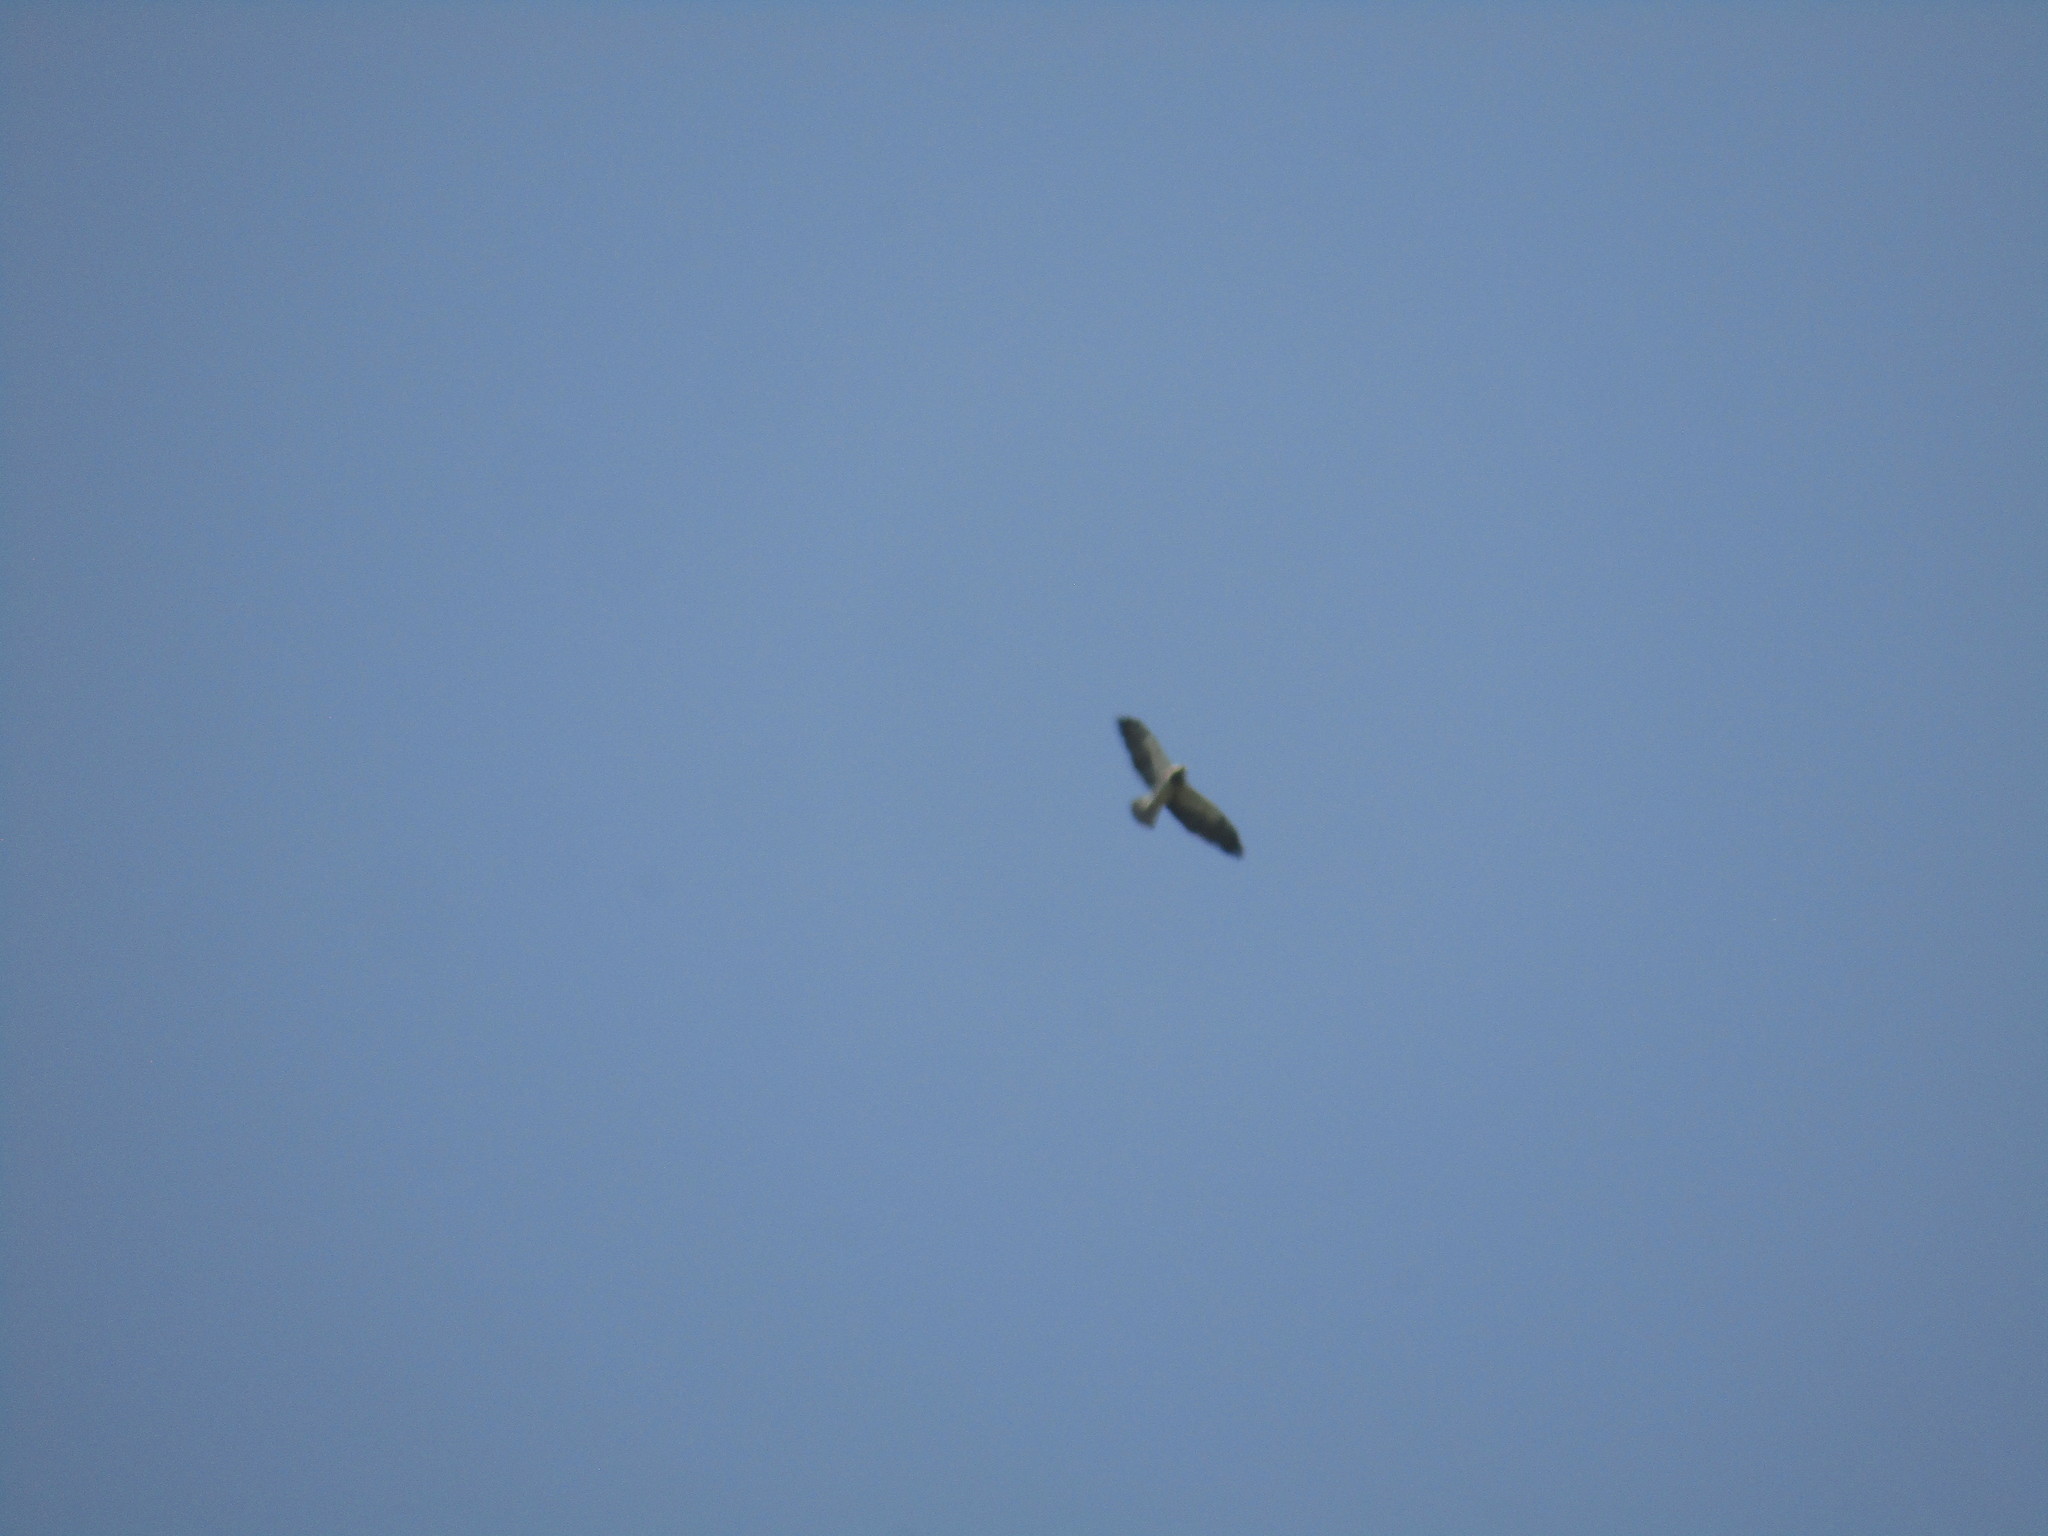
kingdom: Animalia
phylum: Chordata
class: Aves
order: Accipitriformes
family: Accipitridae
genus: Buteo
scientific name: Buteo swainsoni
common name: Swainson's hawk
